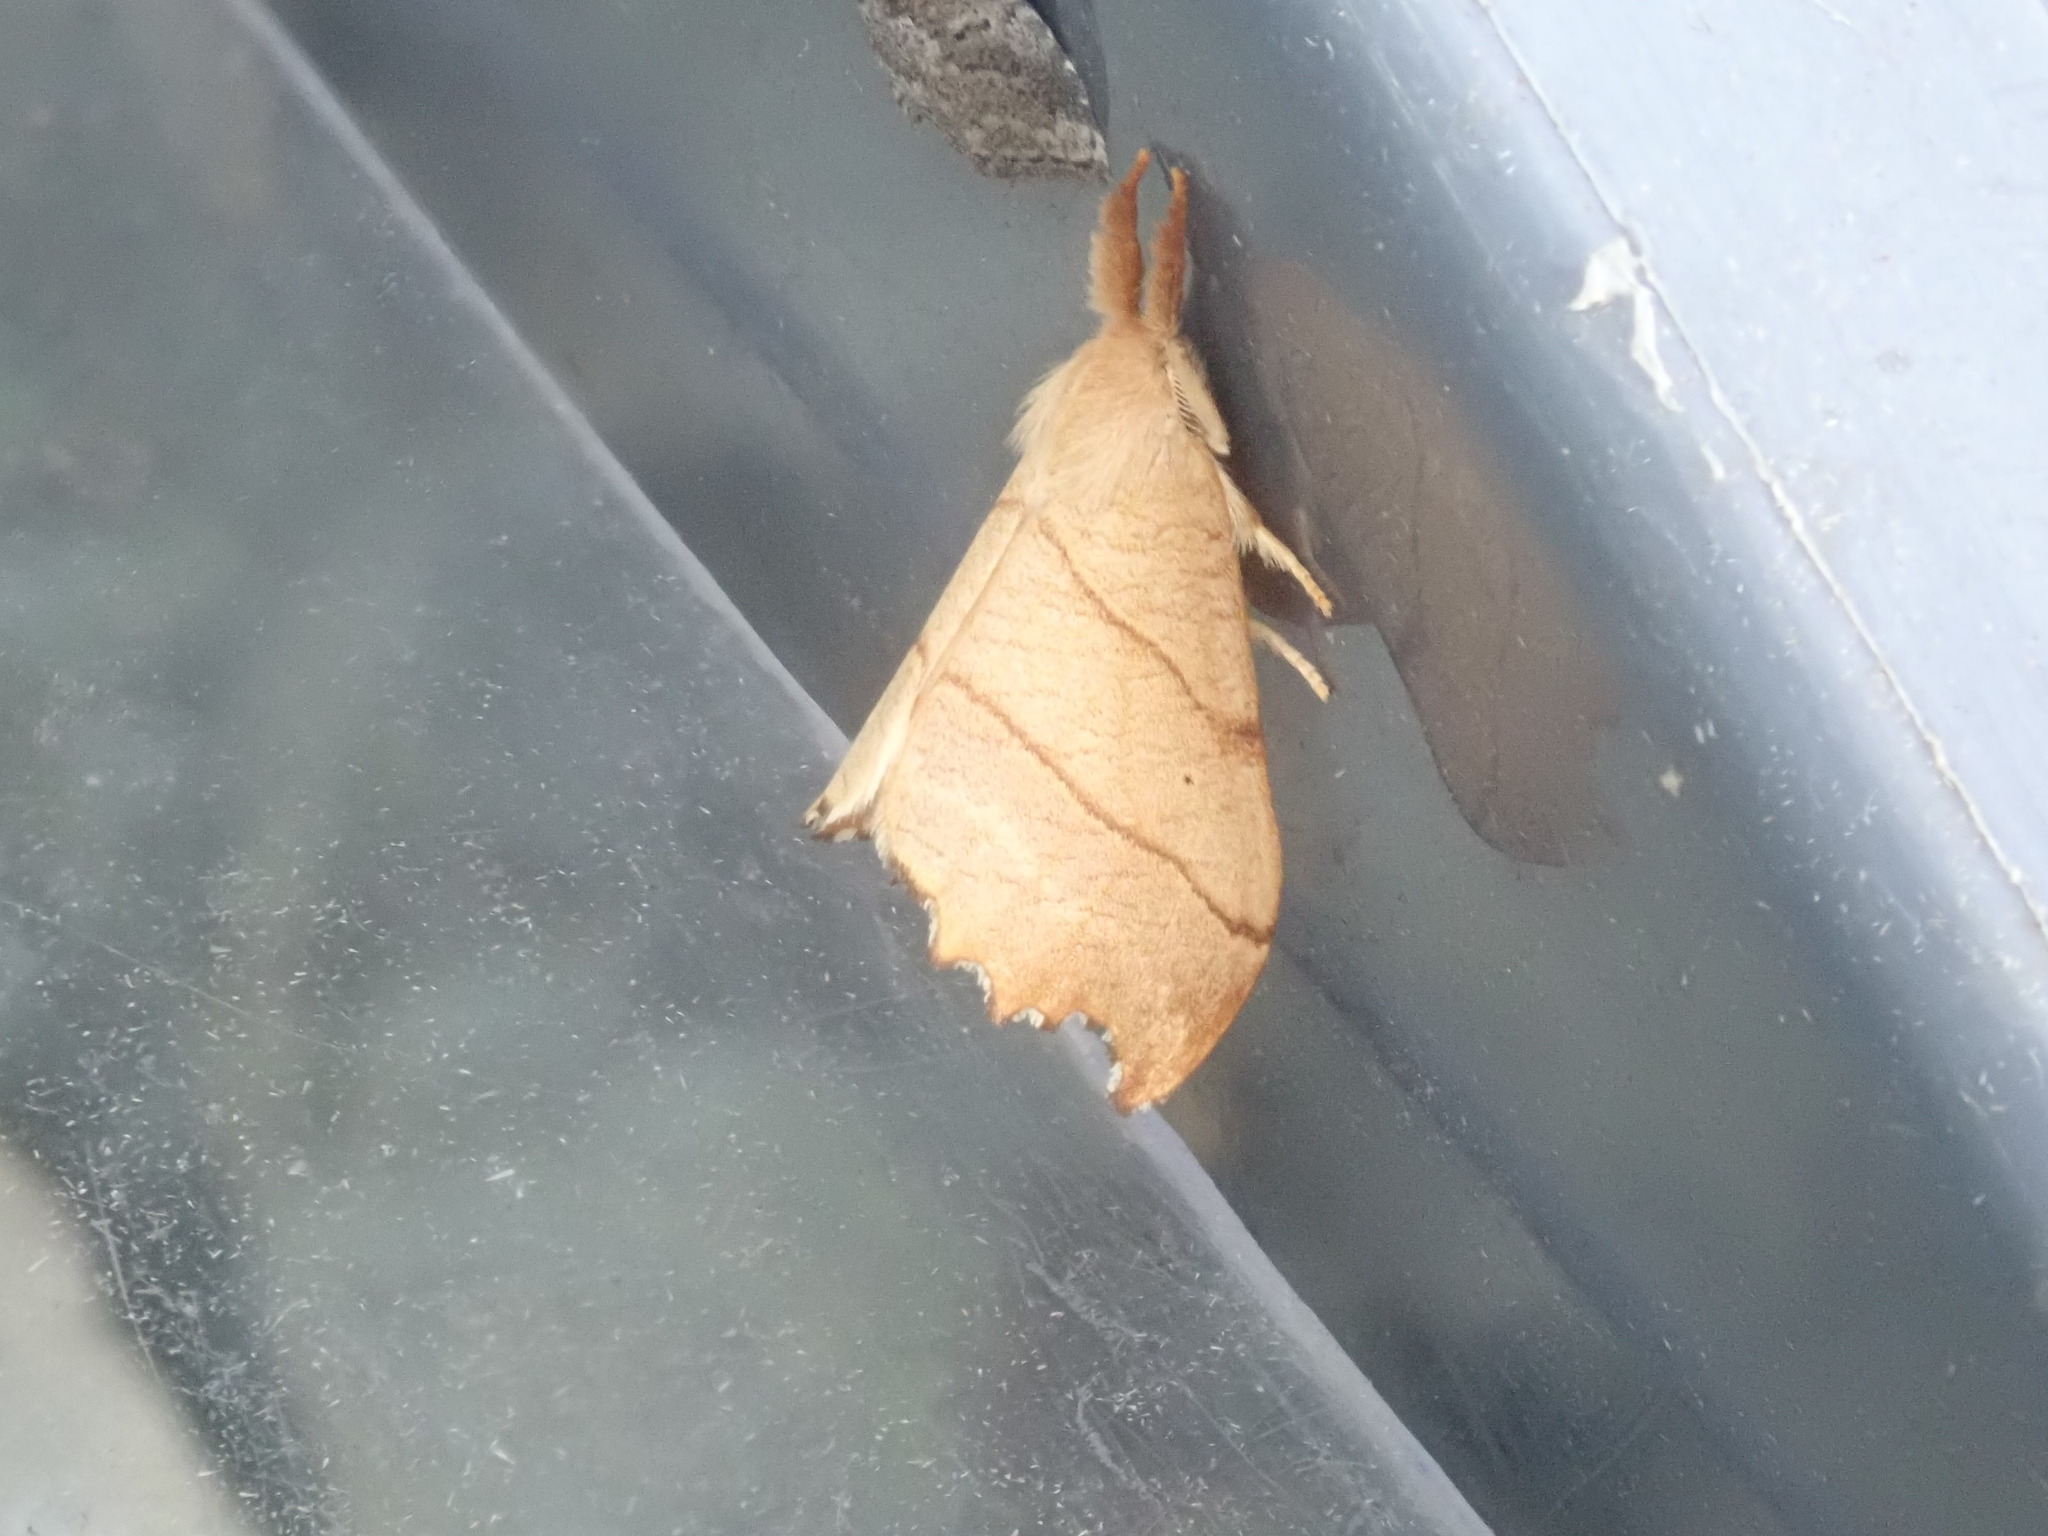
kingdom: Animalia
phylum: Arthropoda
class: Insecta
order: Lepidoptera
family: Drepanidae
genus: Falcaria
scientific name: Falcaria bilineata
